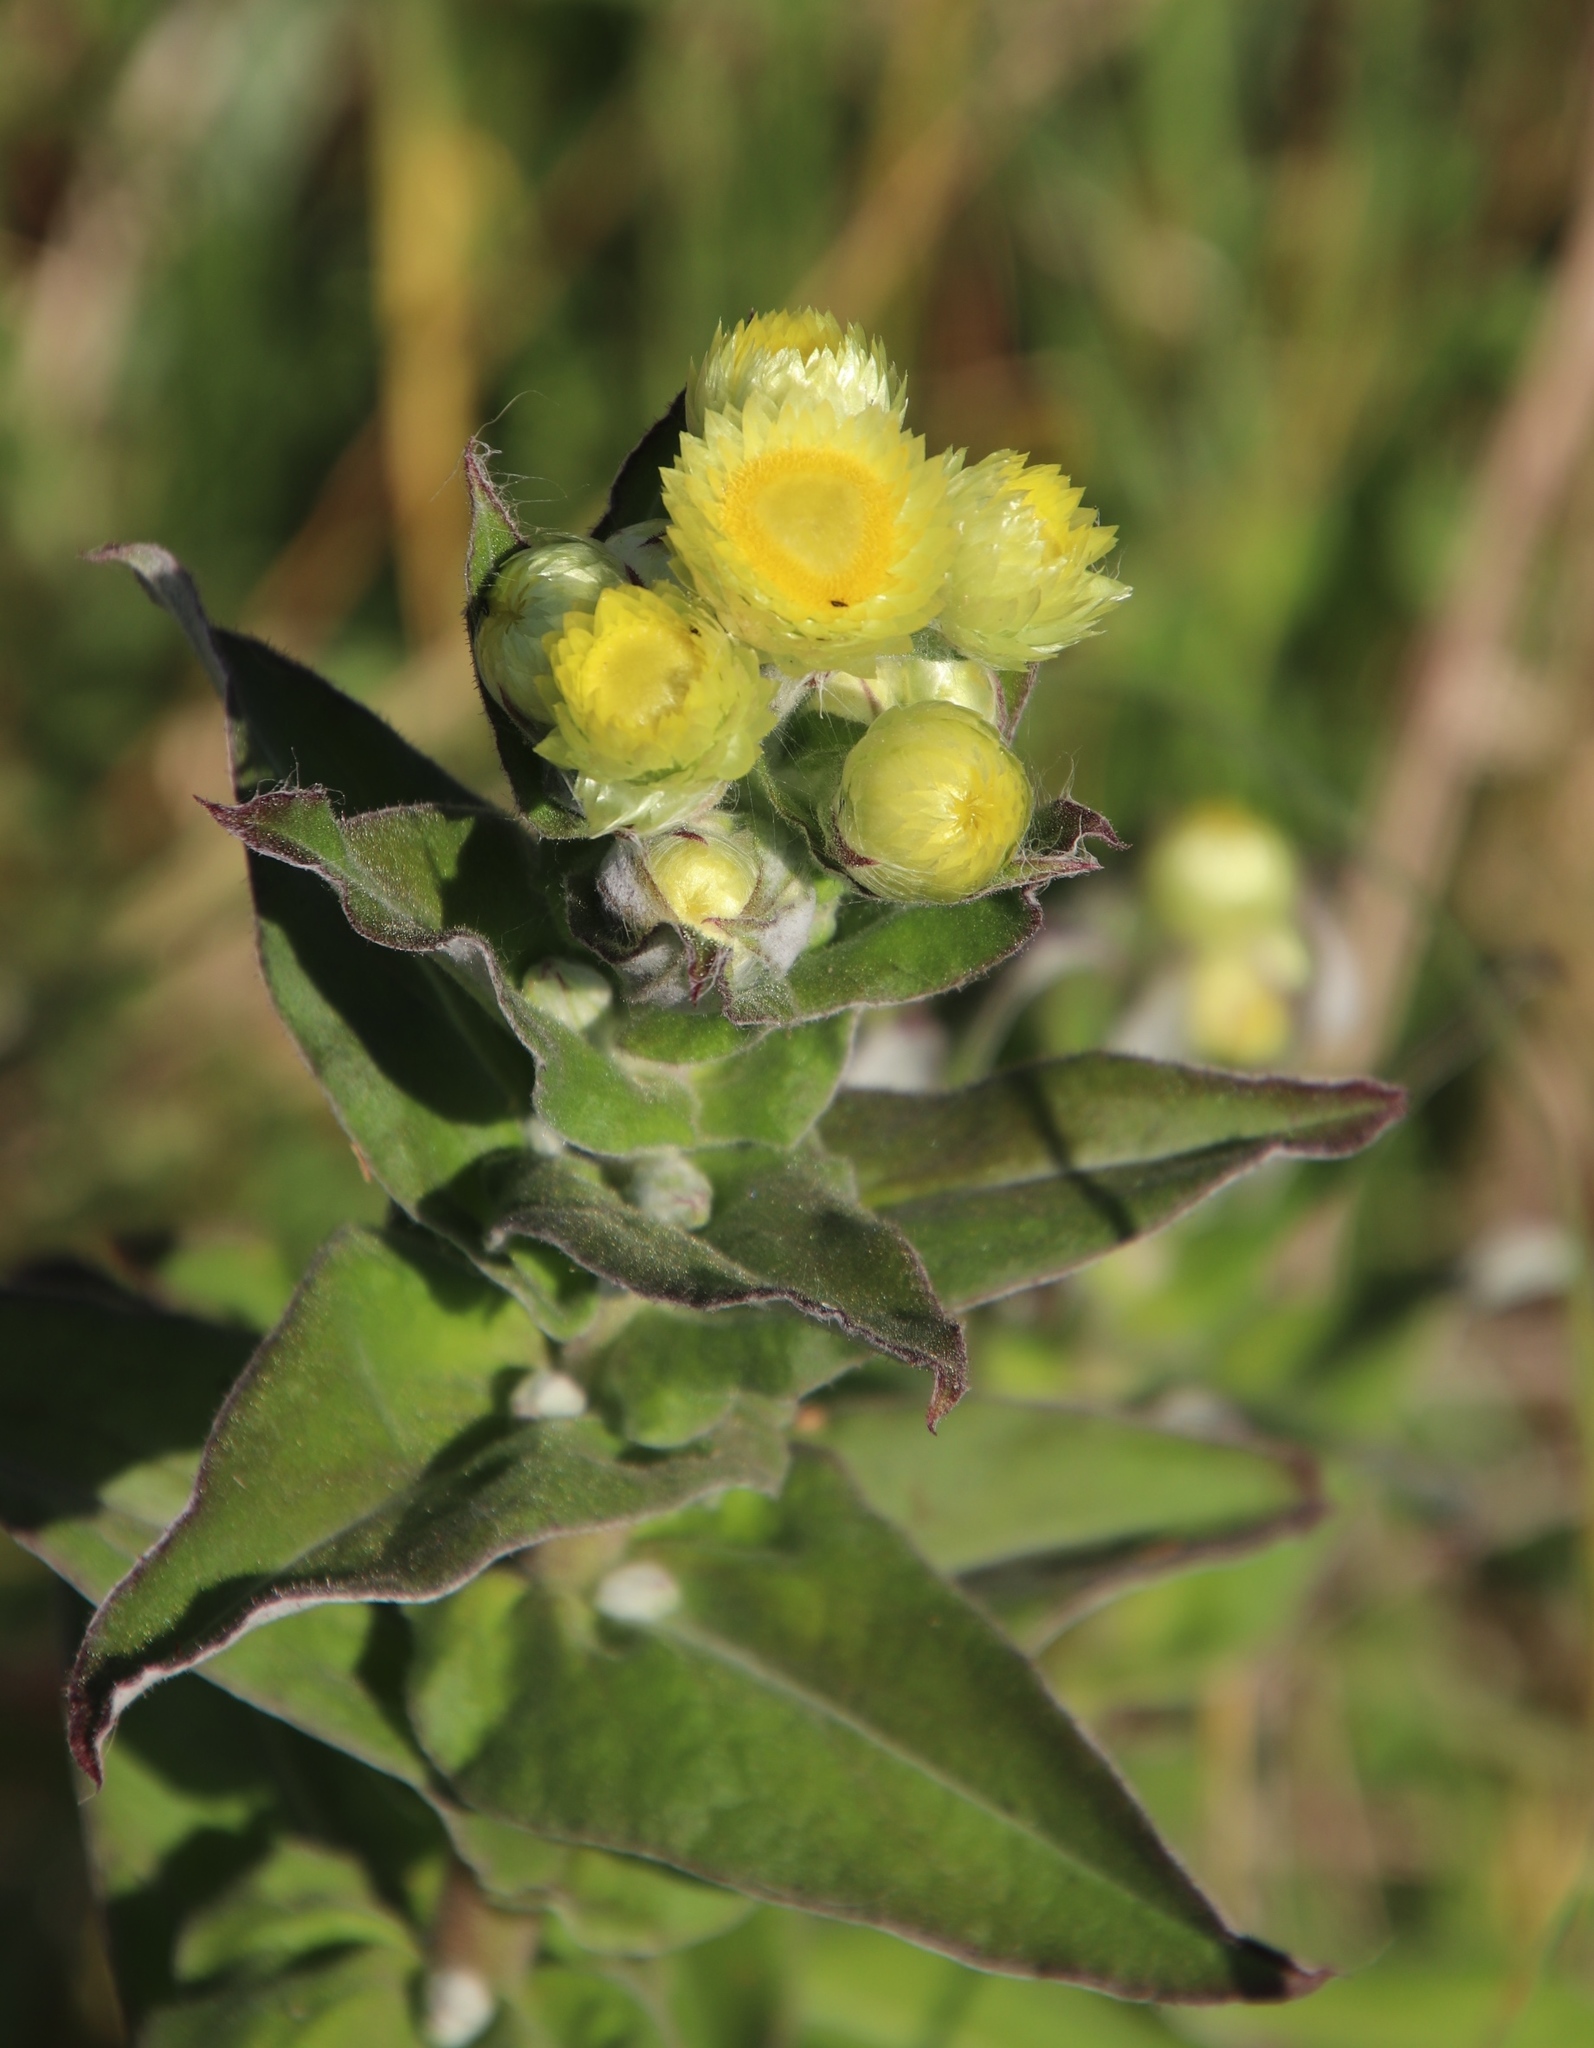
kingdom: Plantae
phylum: Tracheophyta
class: Magnoliopsida
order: Asterales
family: Asteraceae
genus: Helichrysum
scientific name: Helichrysum foetidum
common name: Stinking everlasting
